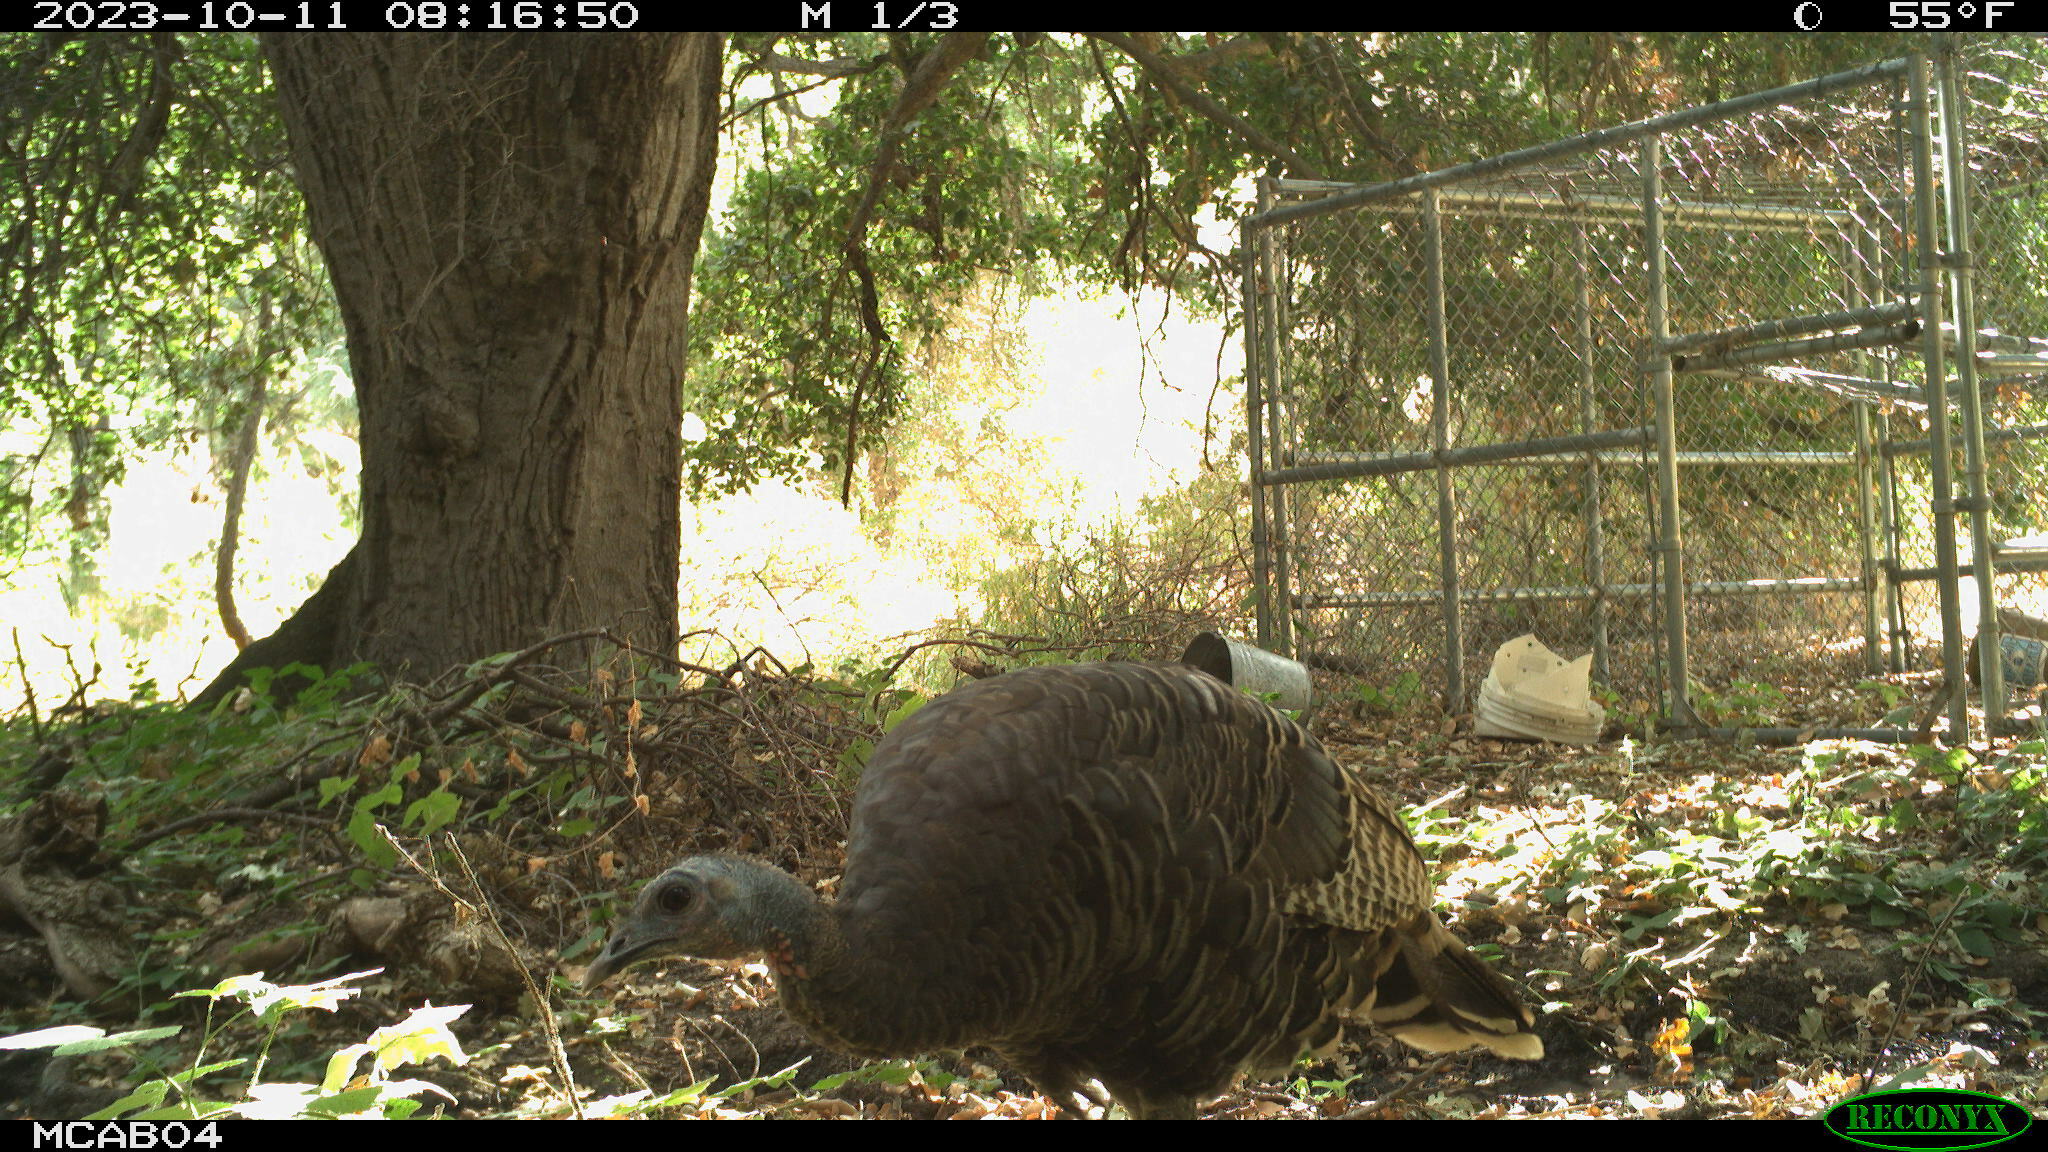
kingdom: Animalia
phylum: Chordata
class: Aves
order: Galliformes
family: Phasianidae
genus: Meleagris
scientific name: Meleagris gallopavo
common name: Wild turkey
